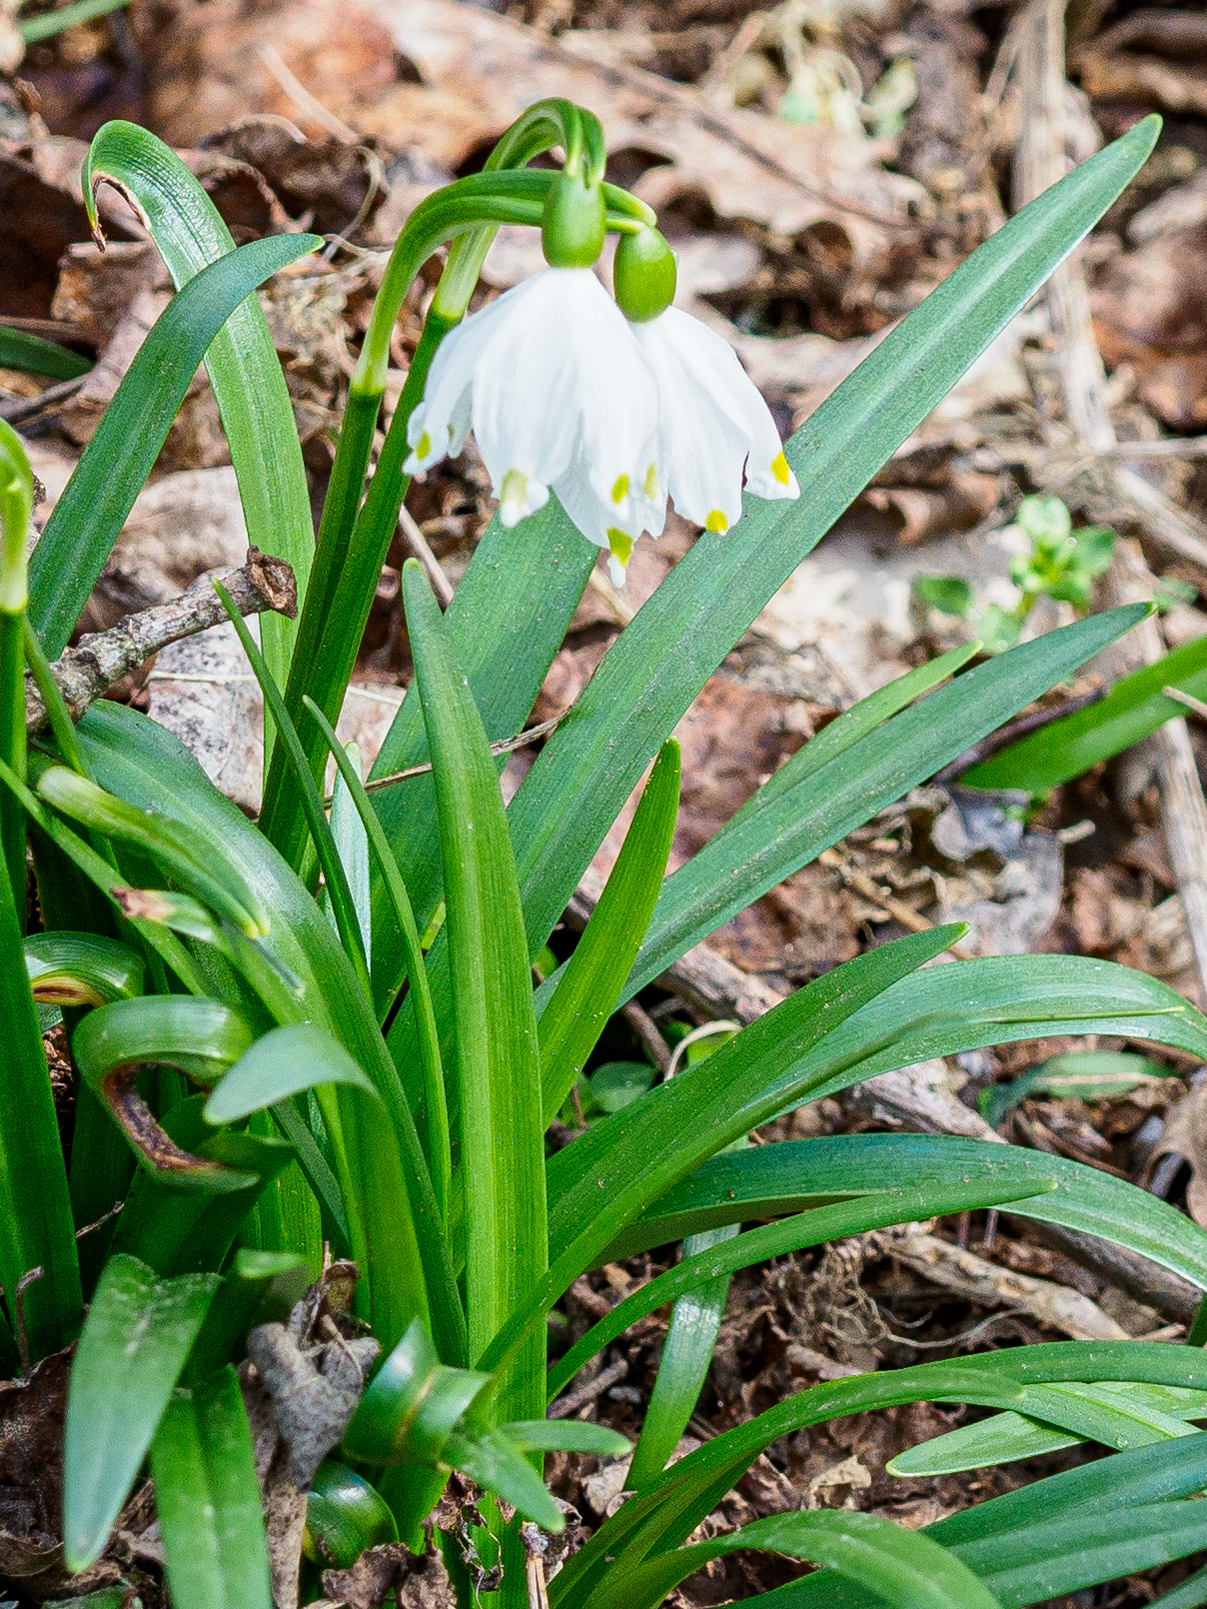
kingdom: Plantae
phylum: Tracheophyta
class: Liliopsida
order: Asparagales
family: Amaryllidaceae
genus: Leucojum
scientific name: Leucojum vernum
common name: Spring snowflake
